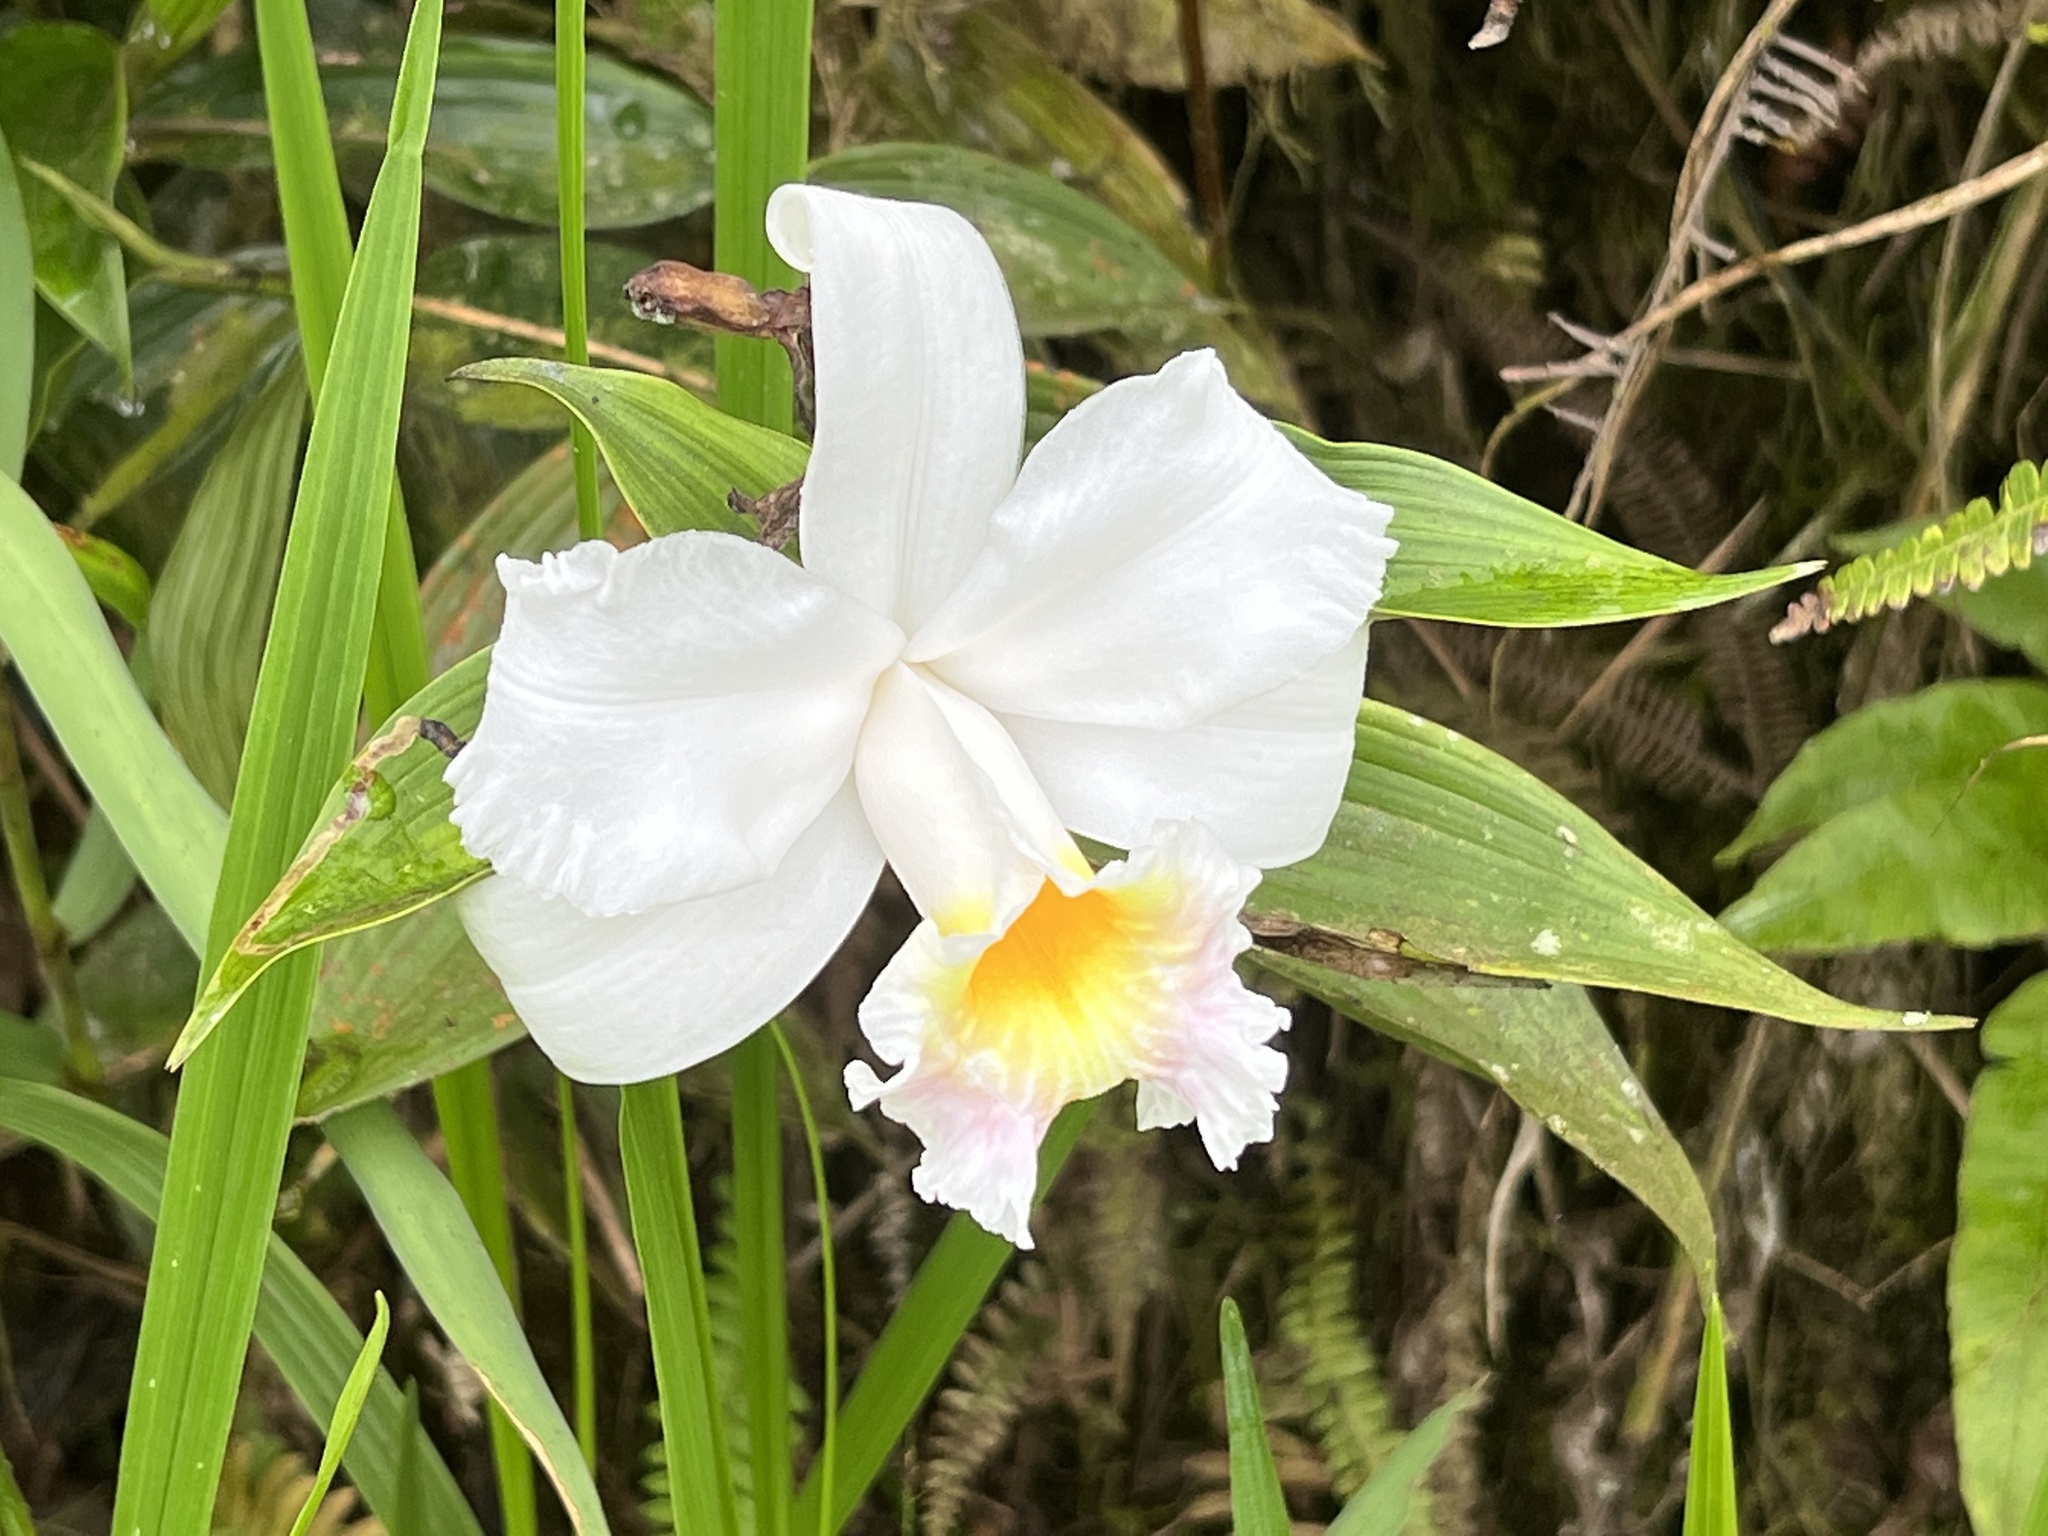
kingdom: Plantae
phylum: Tracheophyta
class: Liliopsida
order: Asparagales
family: Orchidaceae
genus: Sobralia
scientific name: Sobralia virginalis
